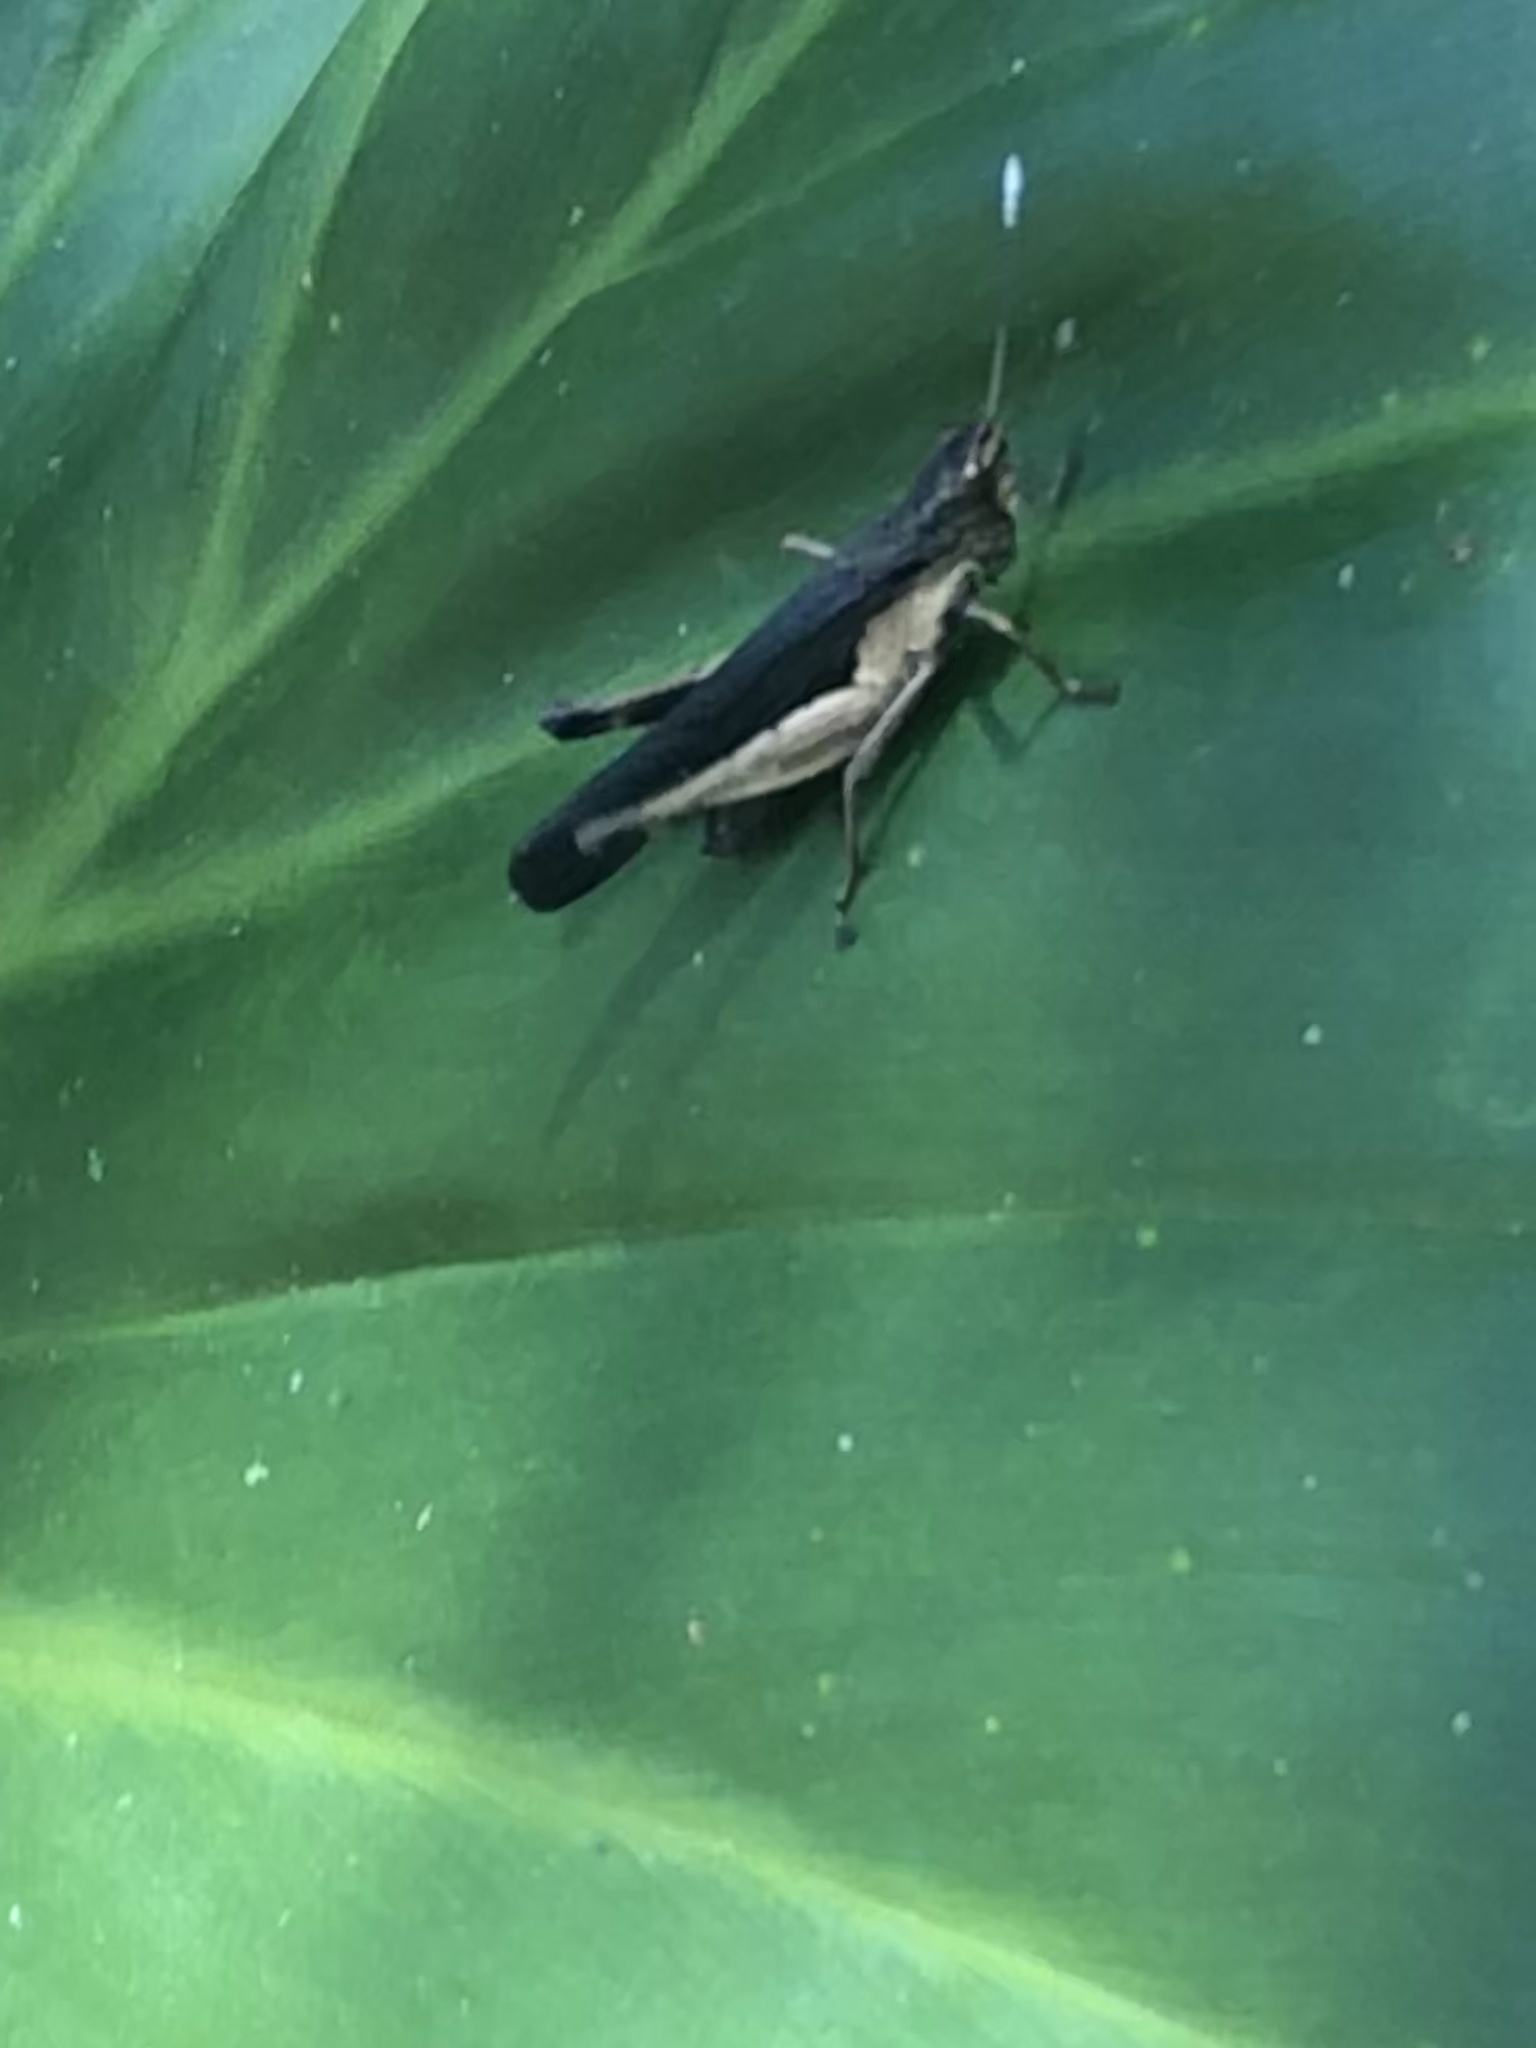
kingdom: Animalia
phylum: Arthropoda
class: Insecta
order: Orthoptera
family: Acrididae
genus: Peruvia
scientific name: Peruvia nigromarginata
